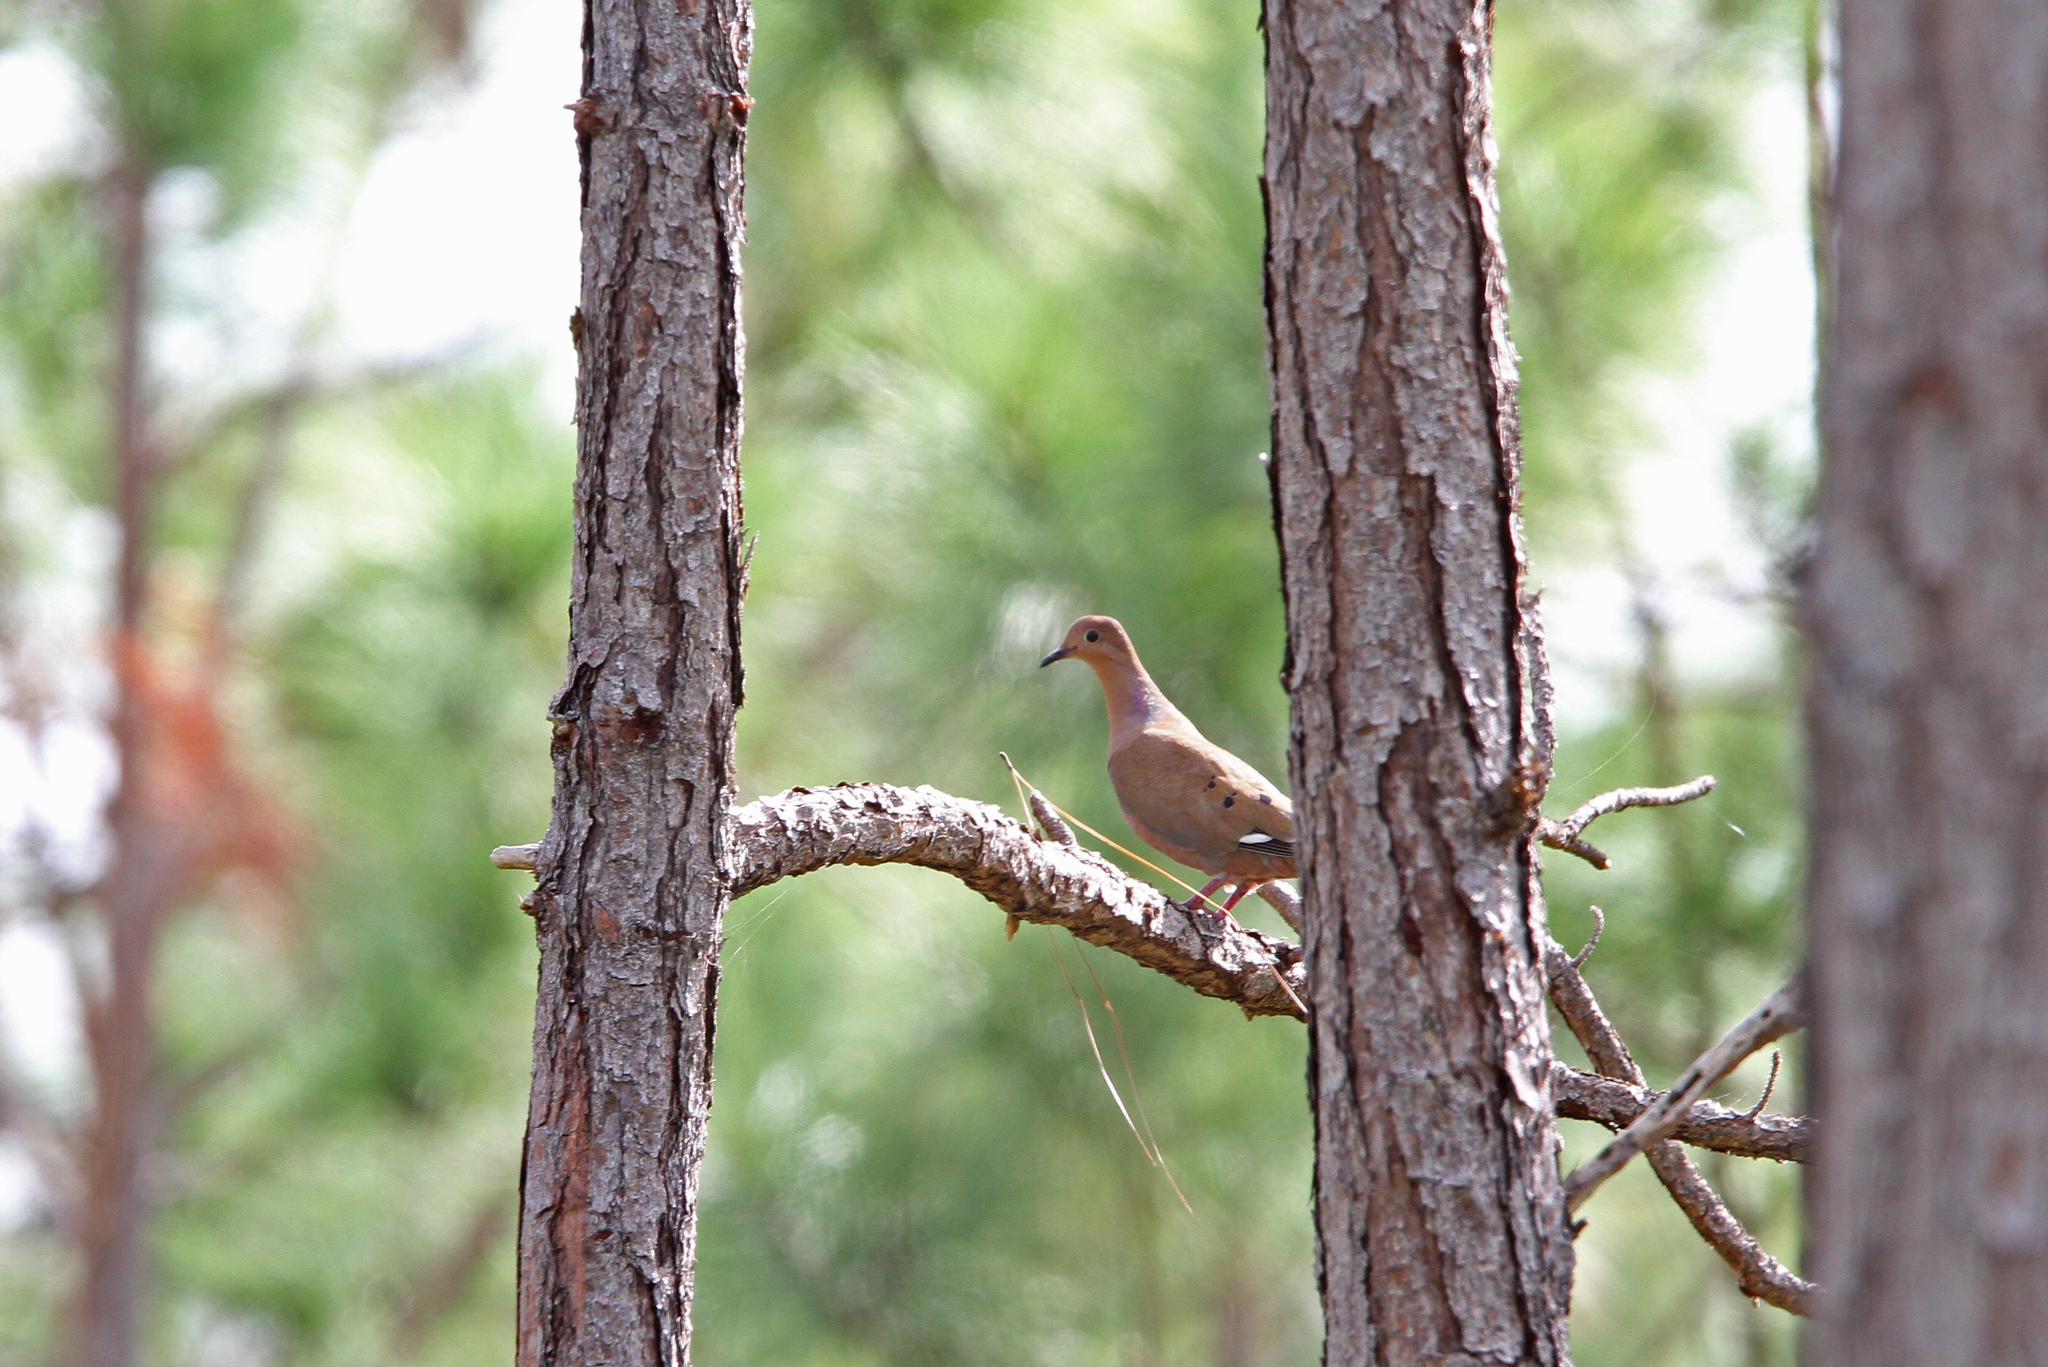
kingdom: Animalia
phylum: Chordata
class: Aves
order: Columbiformes
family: Columbidae
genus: Zenaida
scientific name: Zenaida aurita
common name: Zenaida dove
